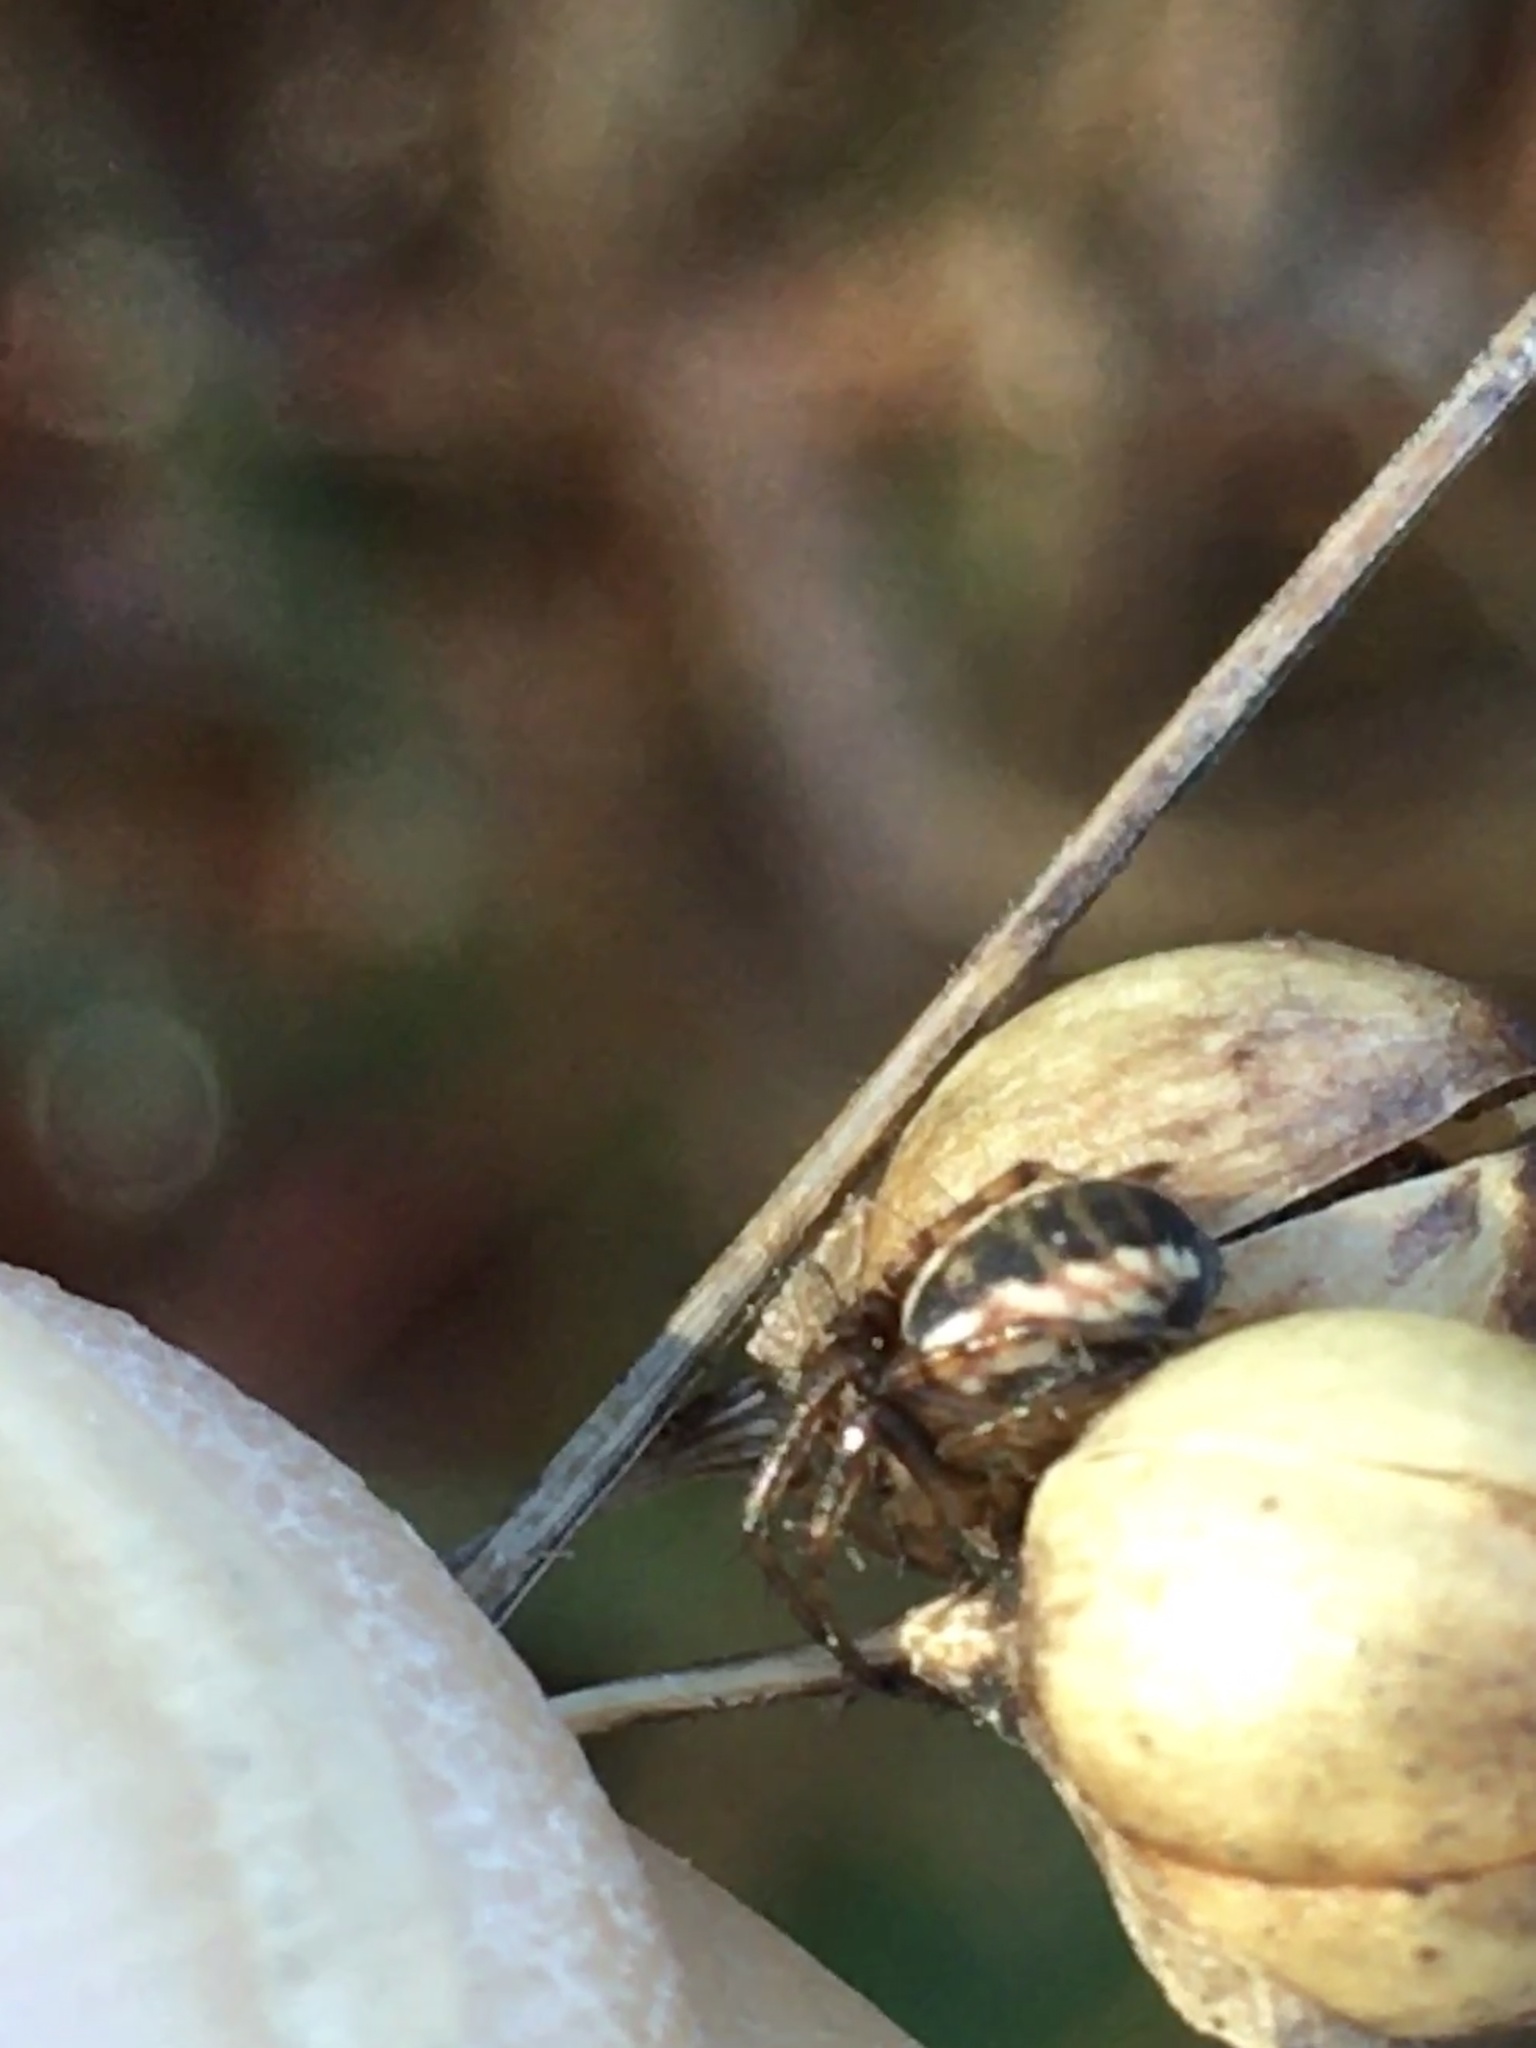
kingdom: Plantae
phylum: Tracheophyta
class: Magnoliopsida
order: Lamiales
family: Orobanchaceae
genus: Agalinis
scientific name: Agalinis purpurea
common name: Purple false foxglove
